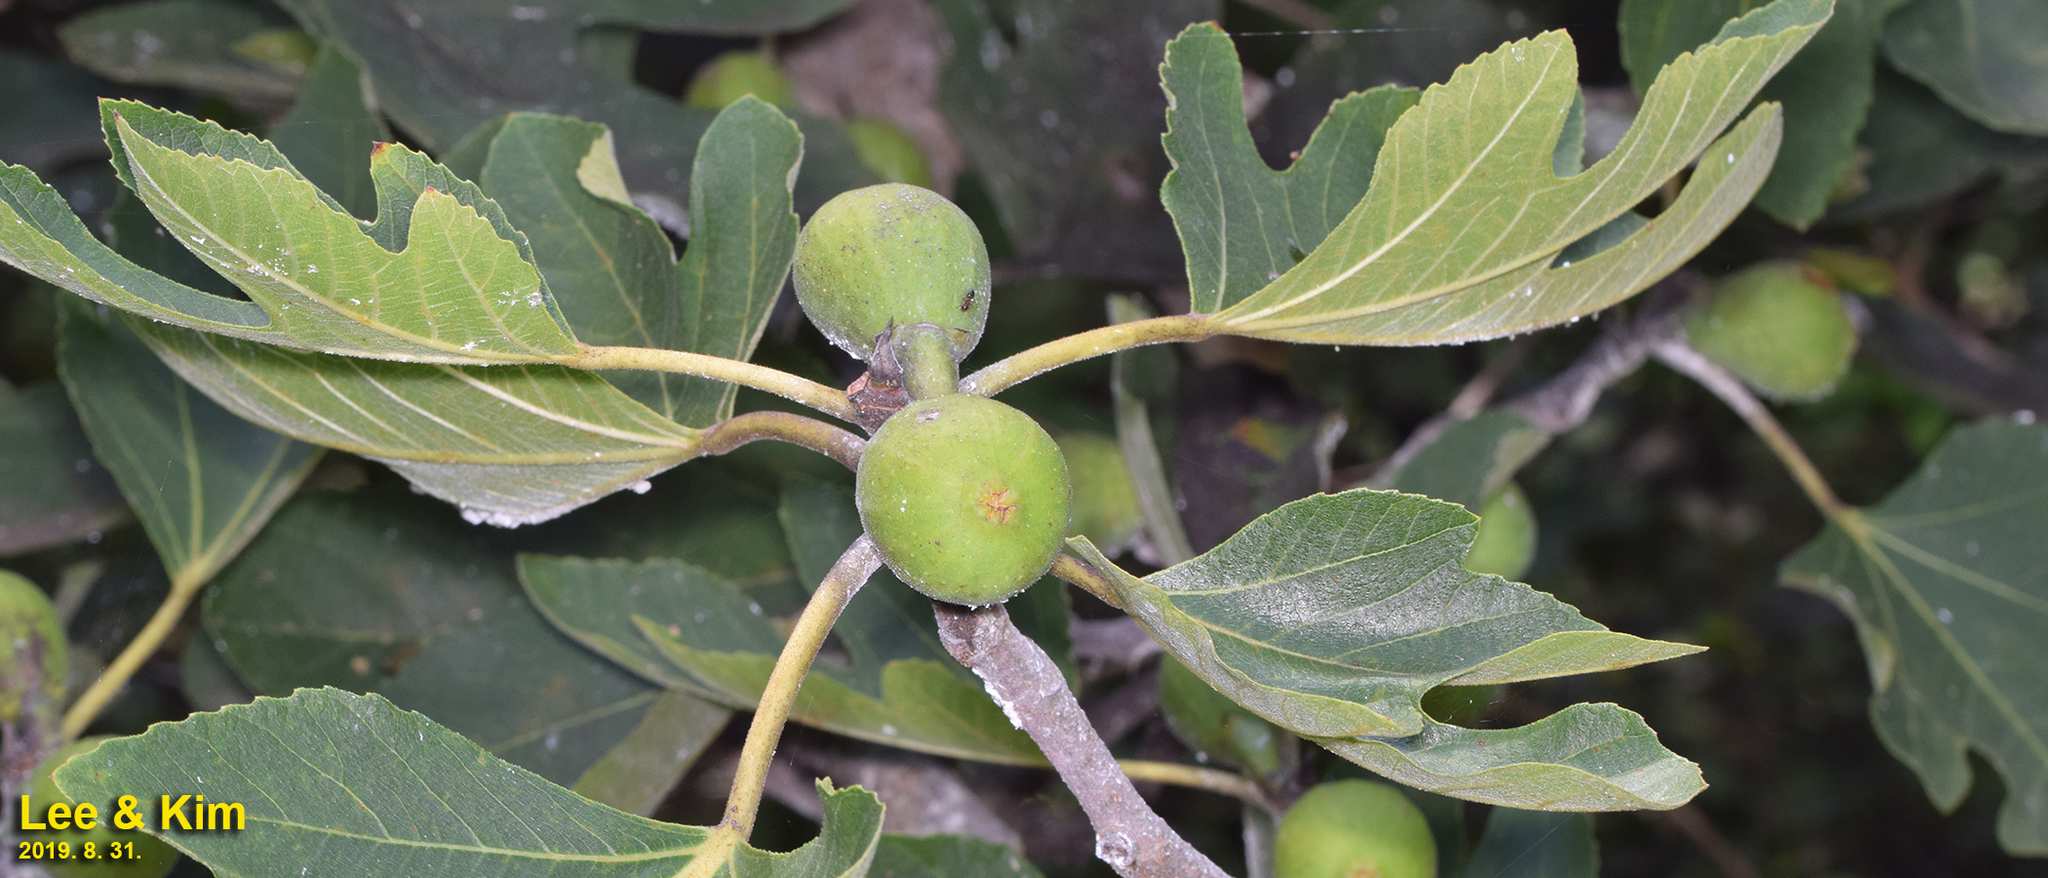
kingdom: Plantae
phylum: Tracheophyta
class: Magnoliopsida
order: Rosales
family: Moraceae
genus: Ficus
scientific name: Ficus carica
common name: Fig
